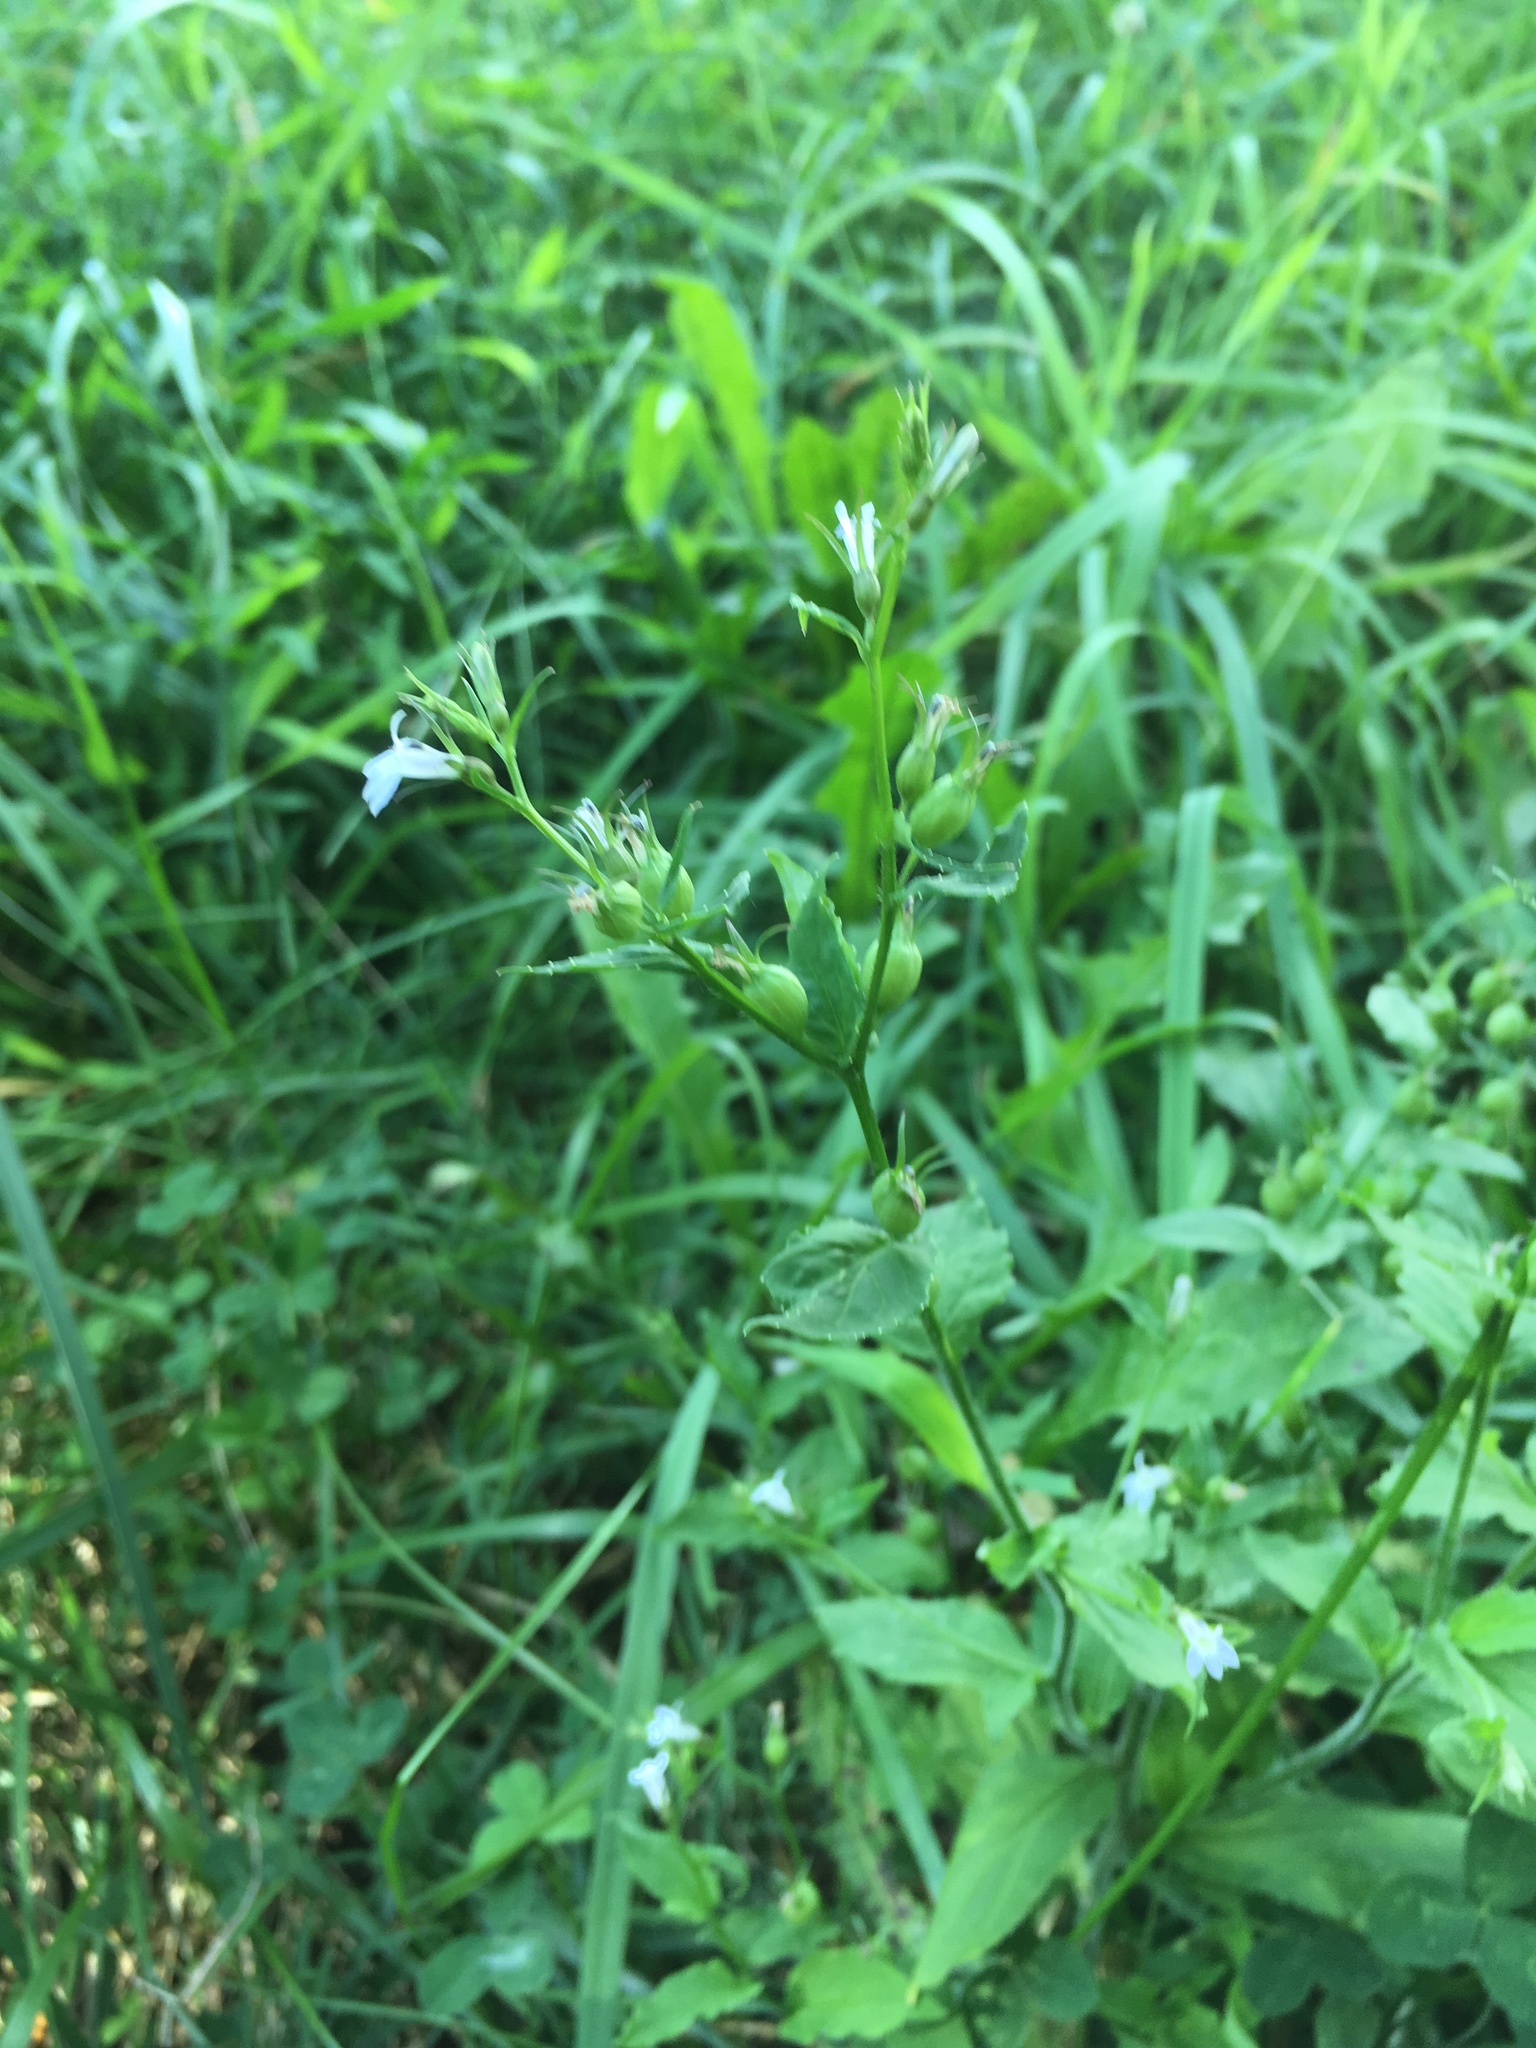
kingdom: Plantae
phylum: Tracheophyta
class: Magnoliopsida
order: Asterales
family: Campanulaceae
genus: Lobelia
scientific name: Lobelia inflata
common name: Indian tobacco
